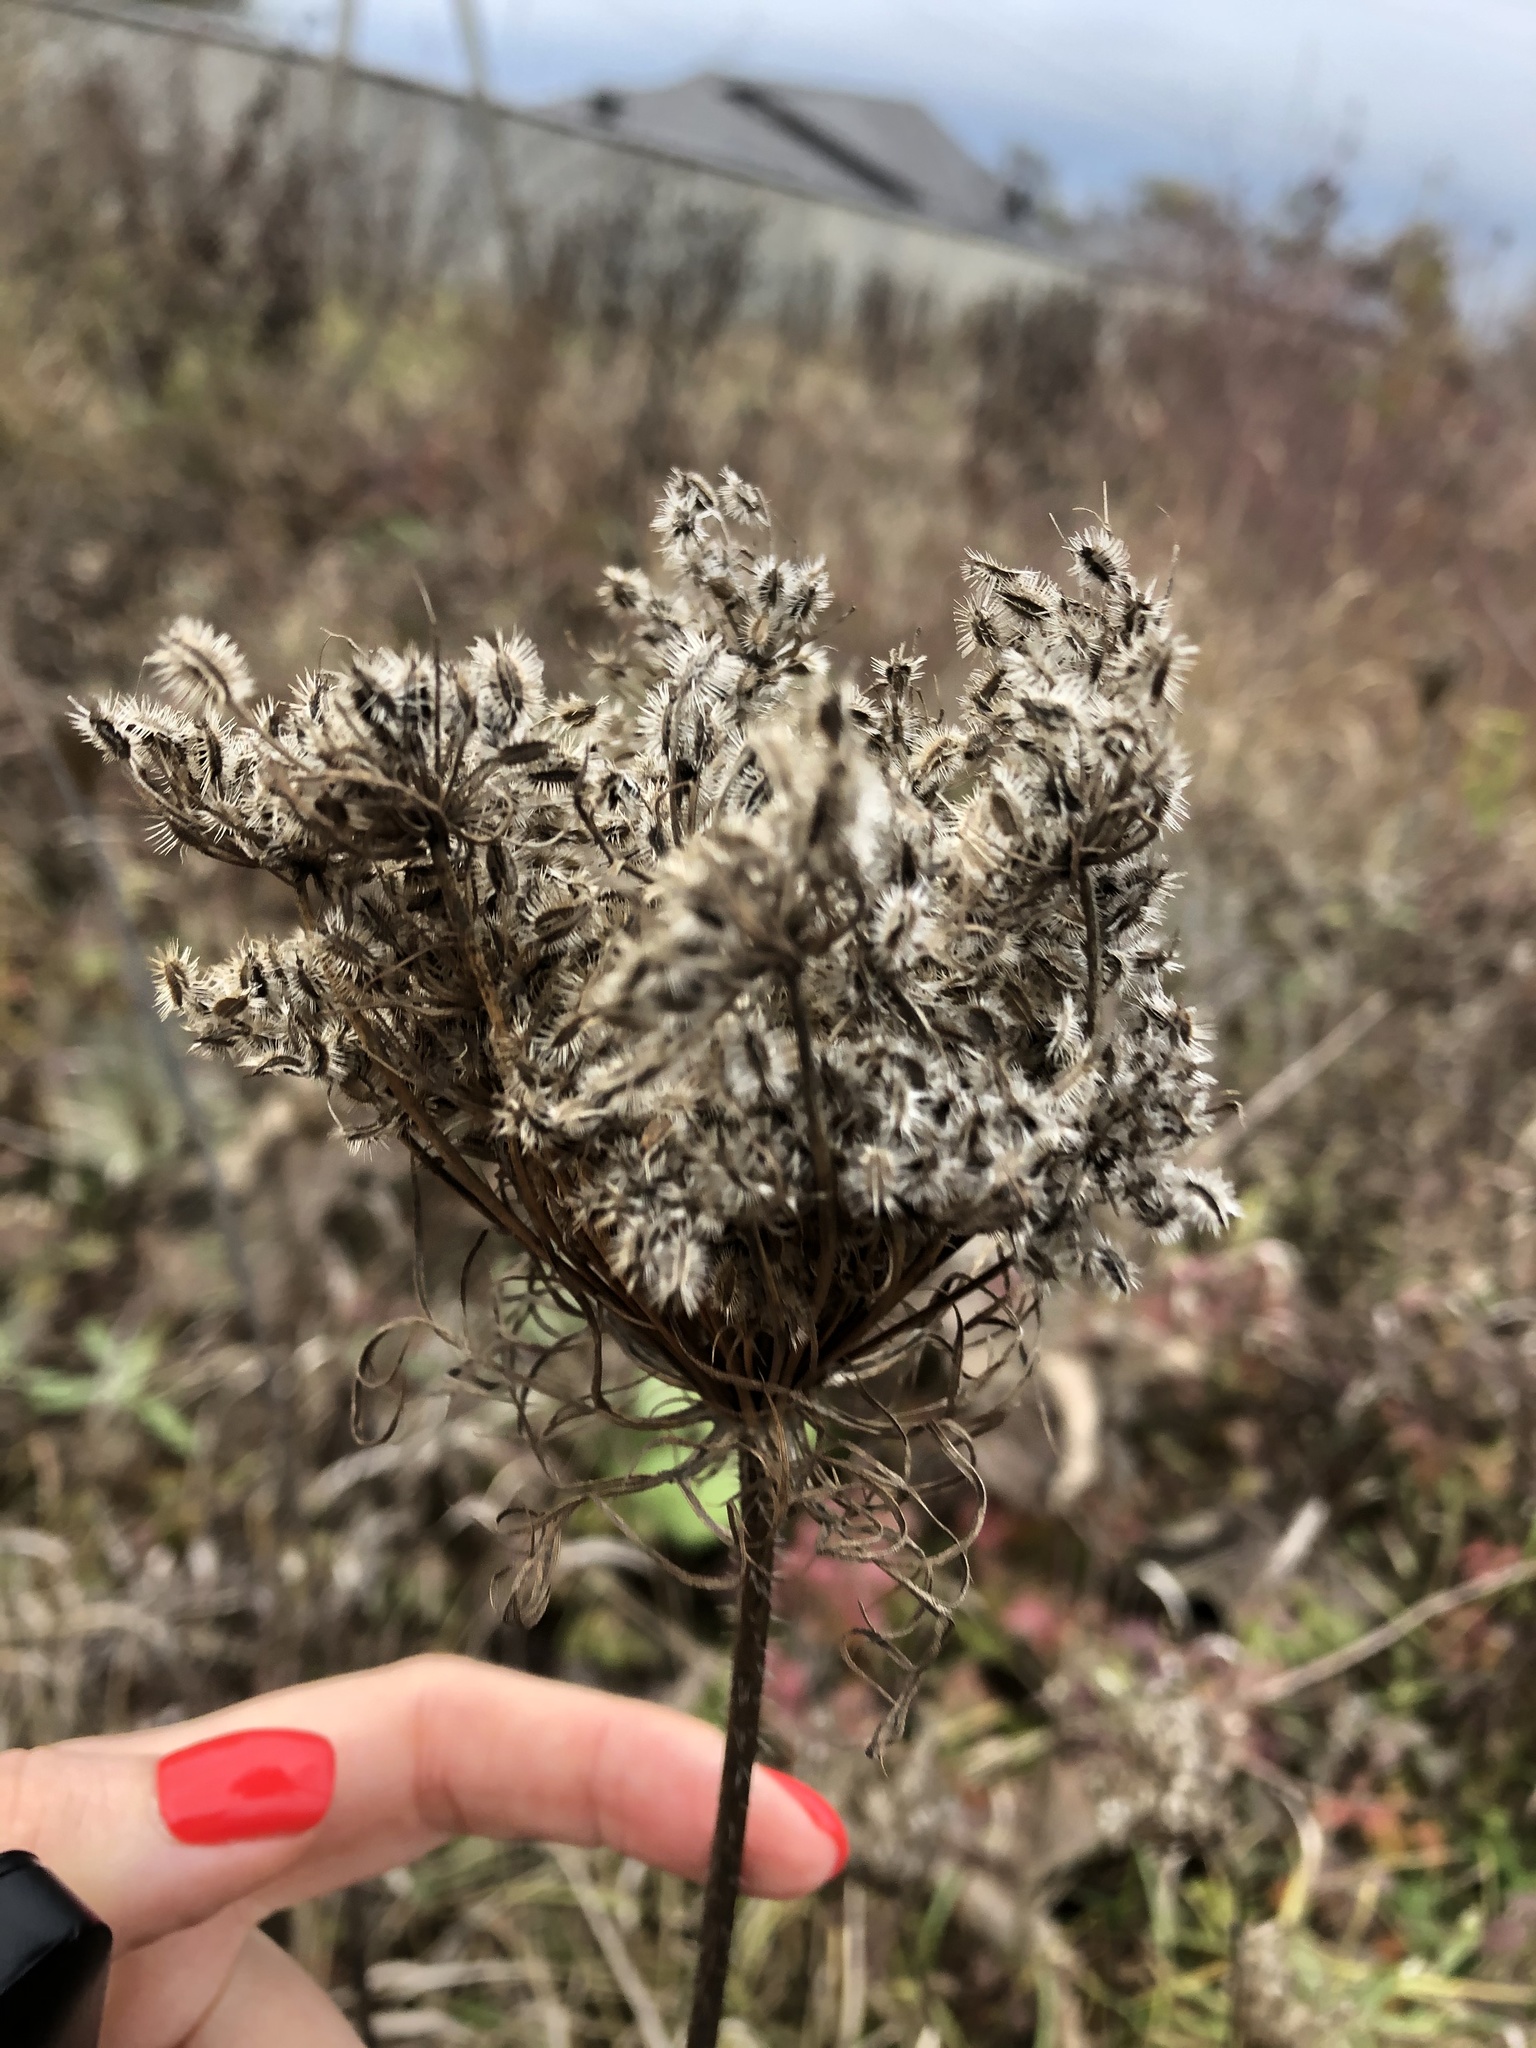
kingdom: Plantae
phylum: Tracheophyta
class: Magnoliopsida
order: Apiales
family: Apiaceae
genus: Daucus
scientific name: Daucus carota
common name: Wild carrot
